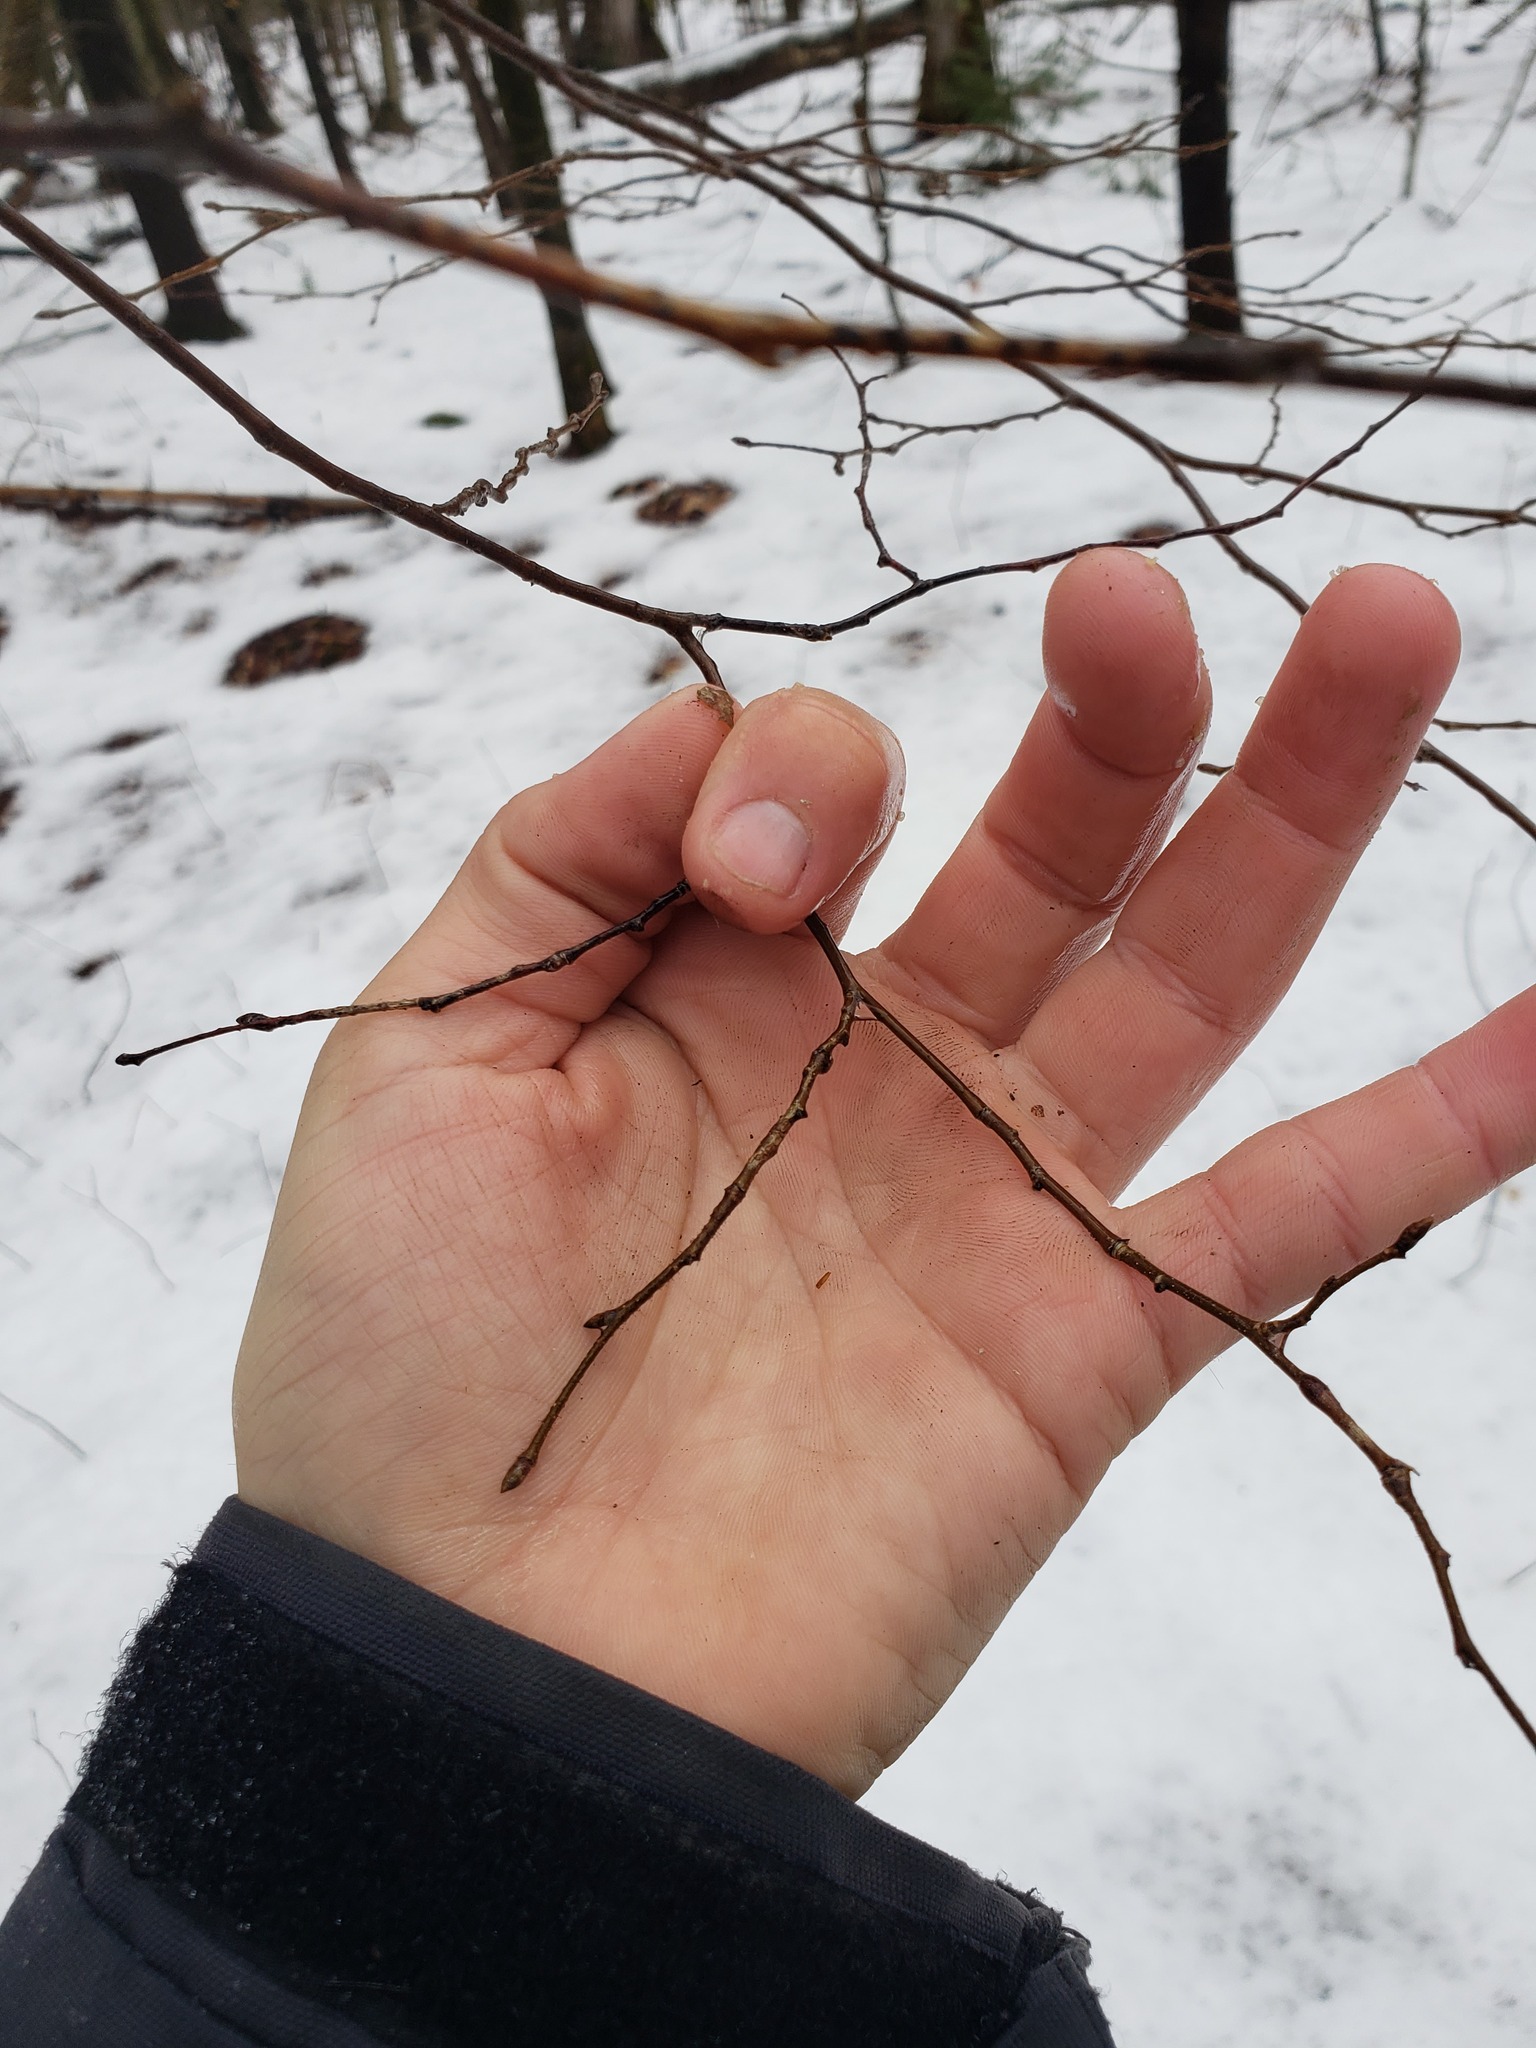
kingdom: Plantae
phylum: Tracheophyta
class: Magnoliopsida
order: Fagales
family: Betulaceae
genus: Ostrya
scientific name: Ostrya virginiana
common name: Ironwood
